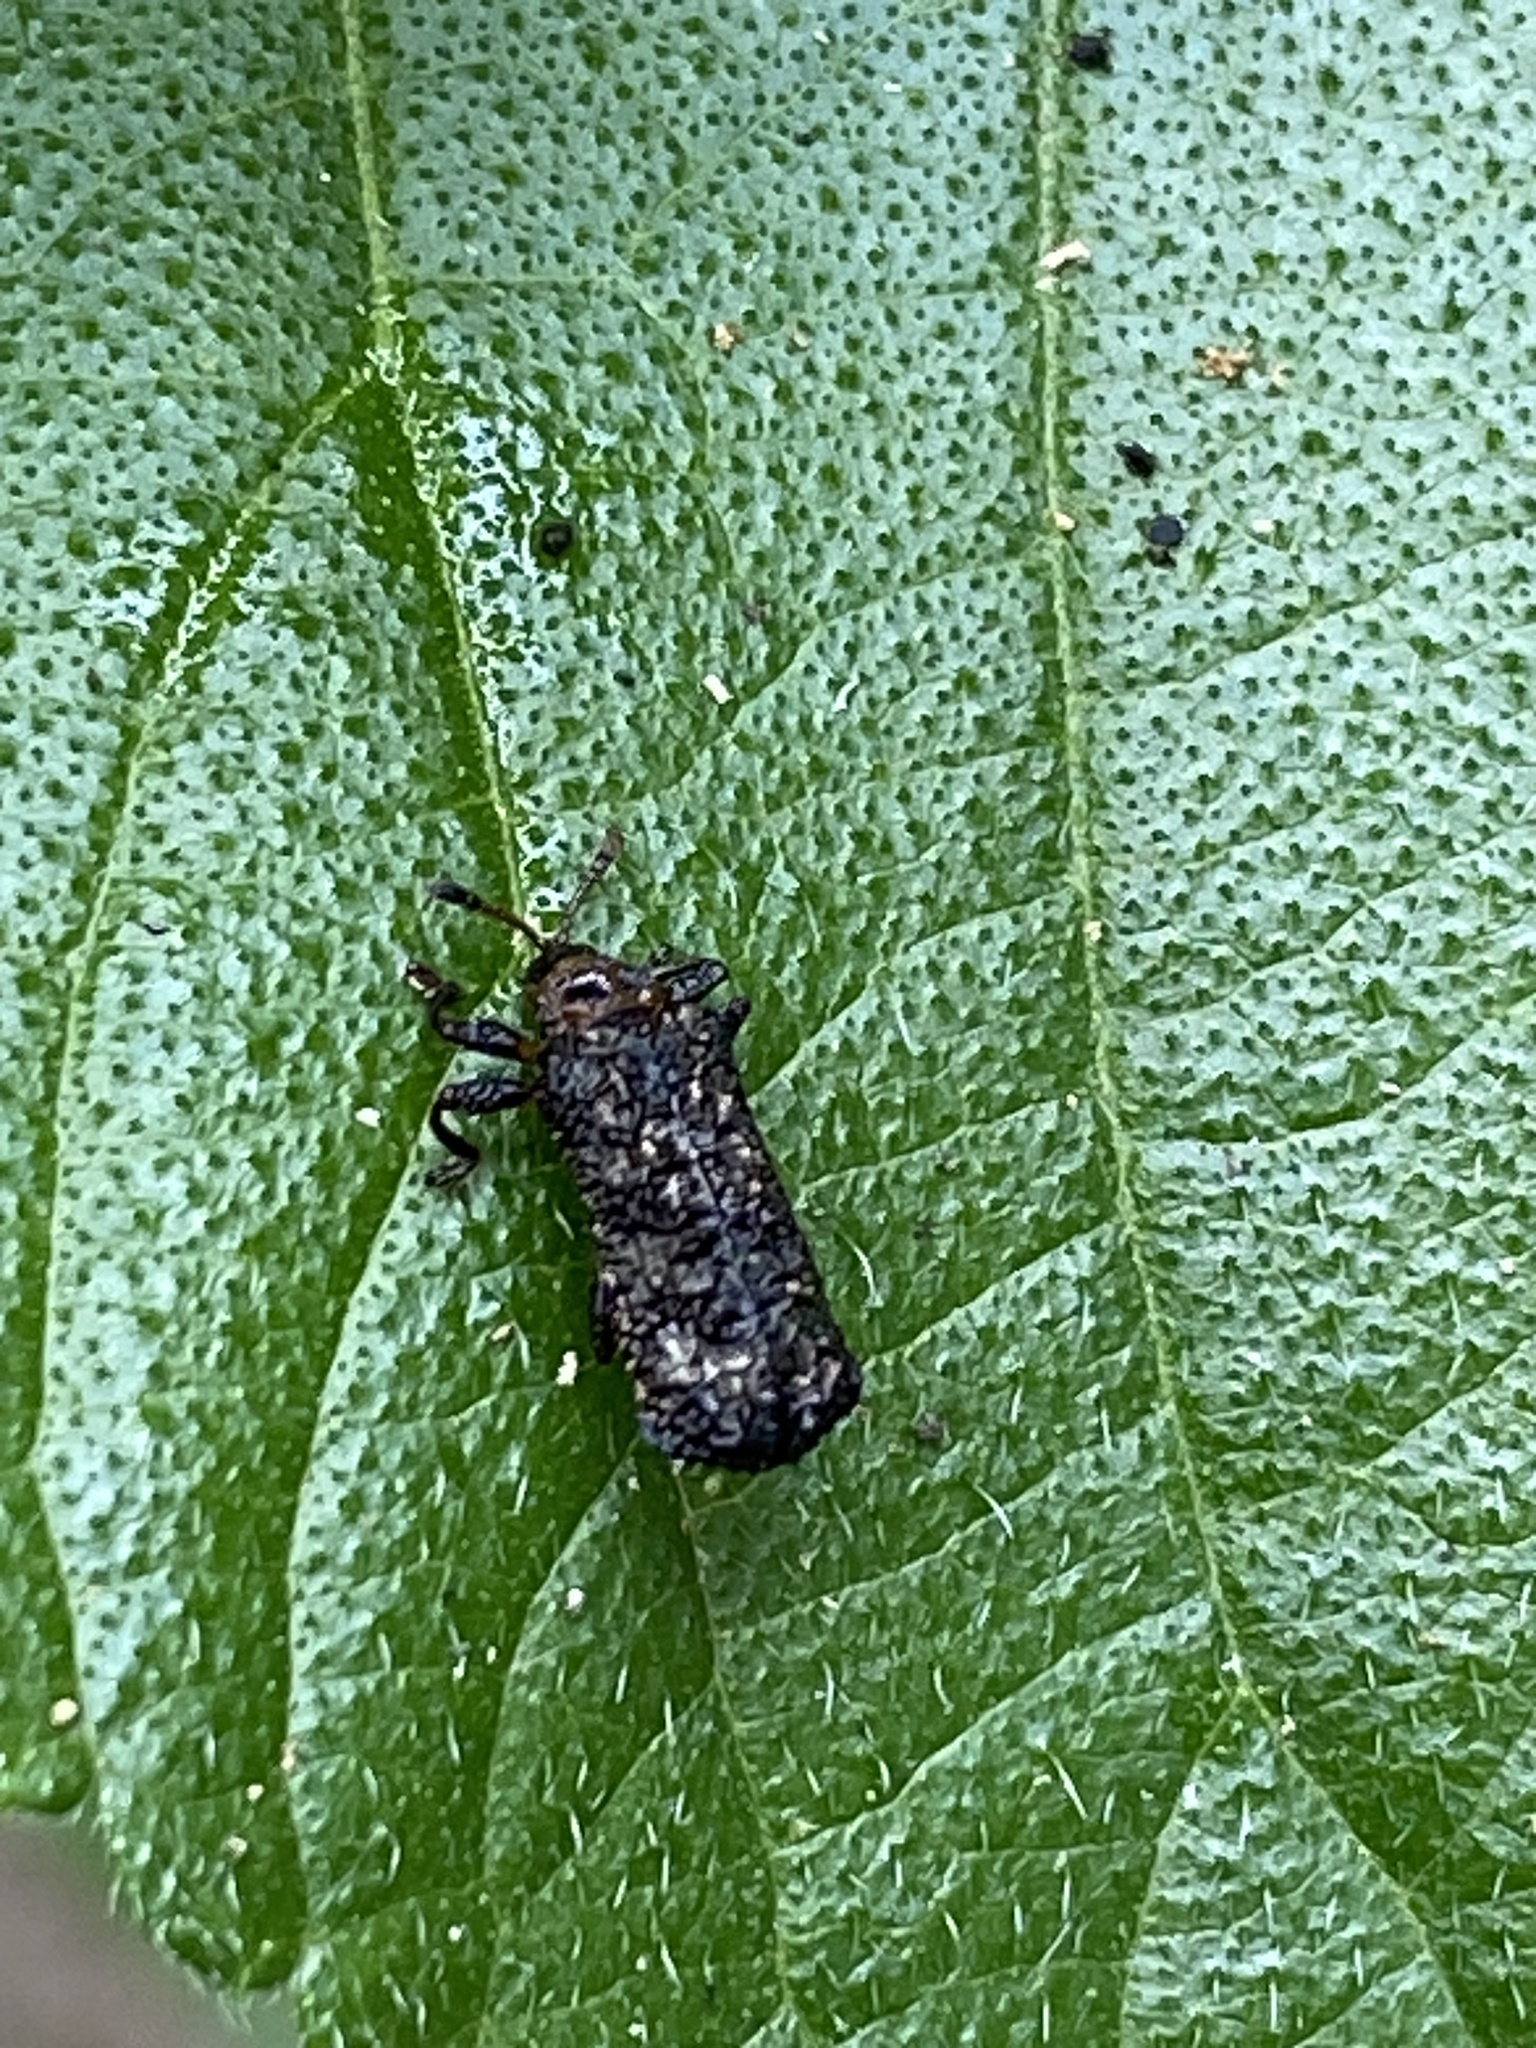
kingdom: Animalia
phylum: Arthropoda
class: Insecta
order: Coleoptera
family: Chrysomelidae
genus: Octotoma
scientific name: Octotoma scabripennis
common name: Beetle
